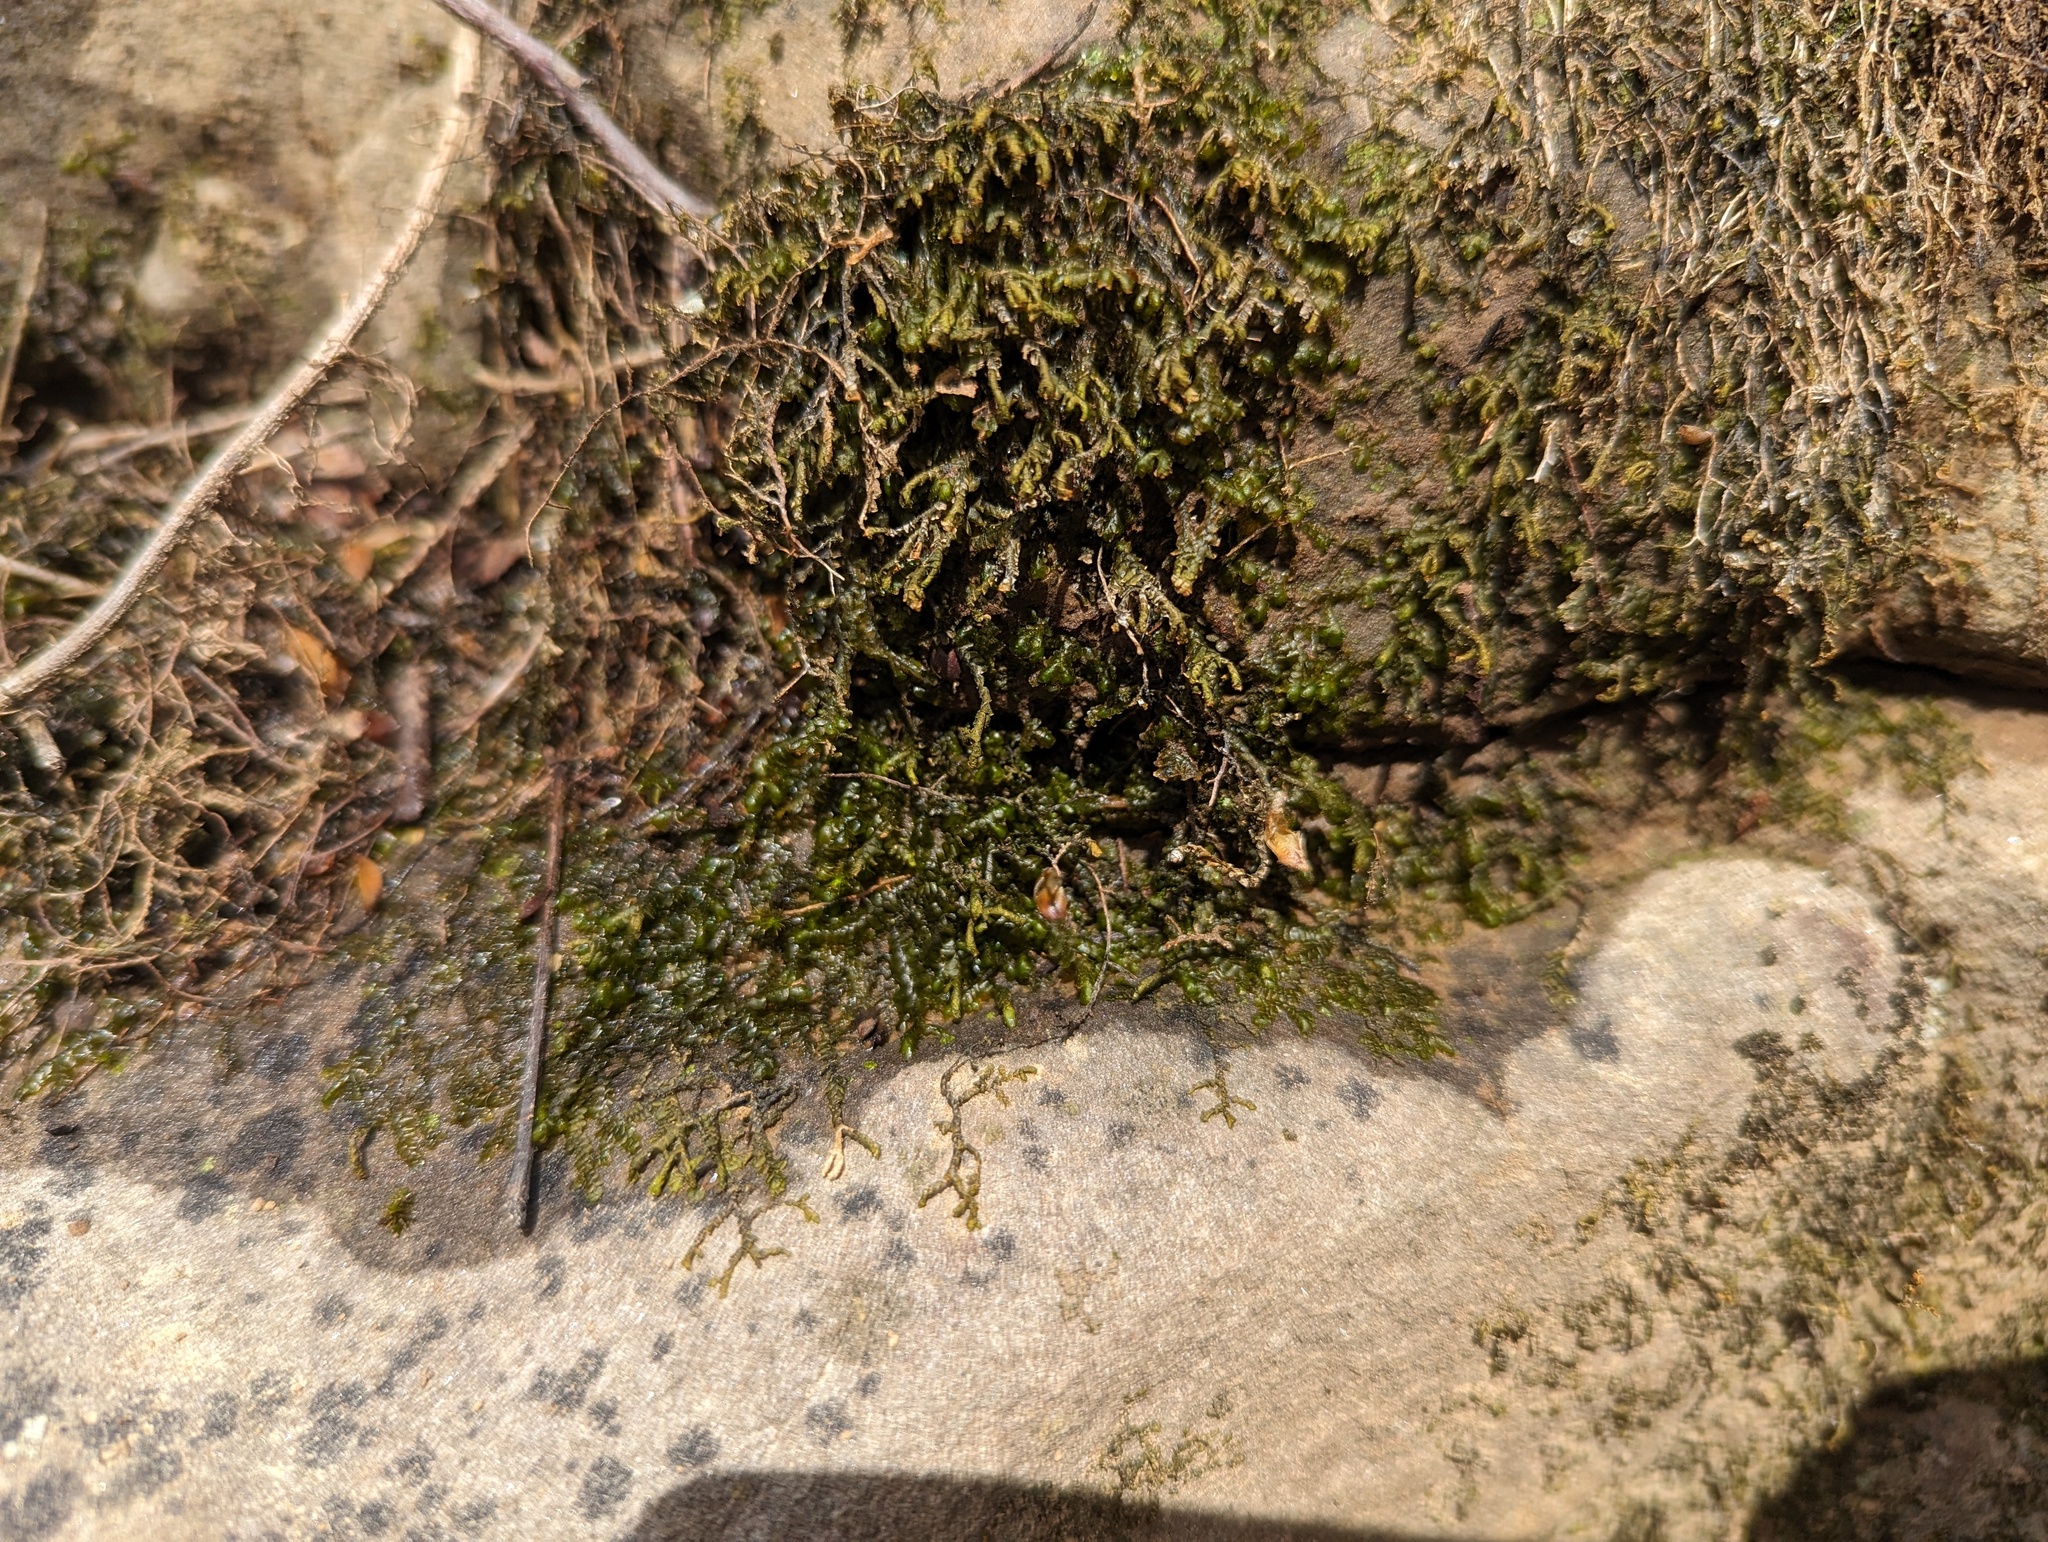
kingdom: Plantae
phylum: Marchantiophyta
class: Jungermanniopsida
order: Porellales
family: Porellaceae
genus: Porella
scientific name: Porella pinnata
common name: Pinnate scalewort
